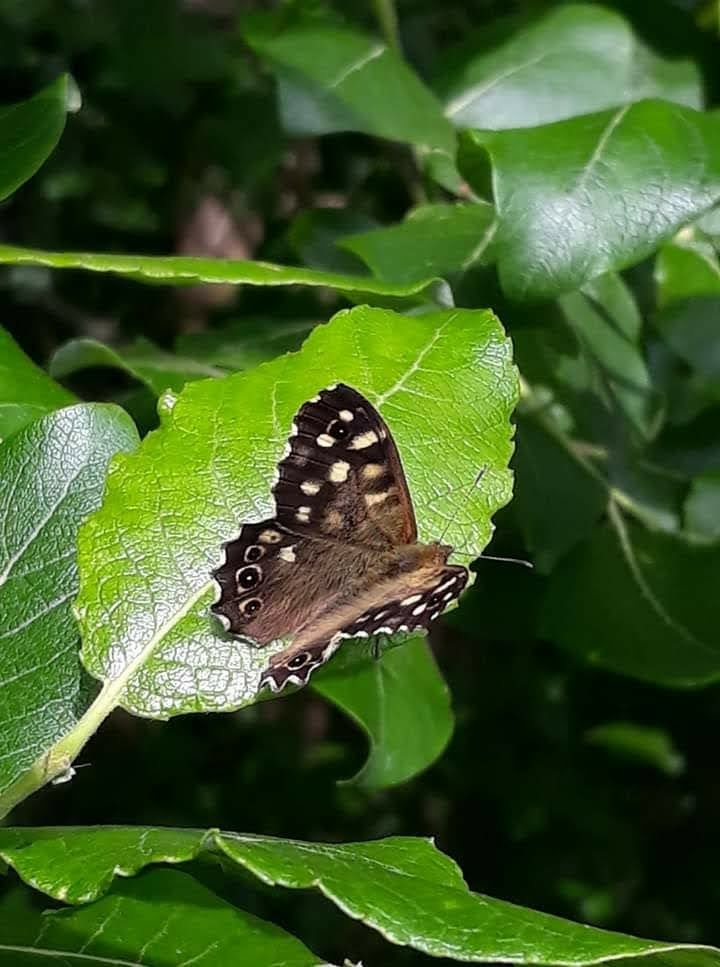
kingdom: Animalia
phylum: Arthropoda
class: Insecta
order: Lepidoptera
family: Nymphalidae
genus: Pararge
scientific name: Pararge aegeria
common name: Speckled wood
